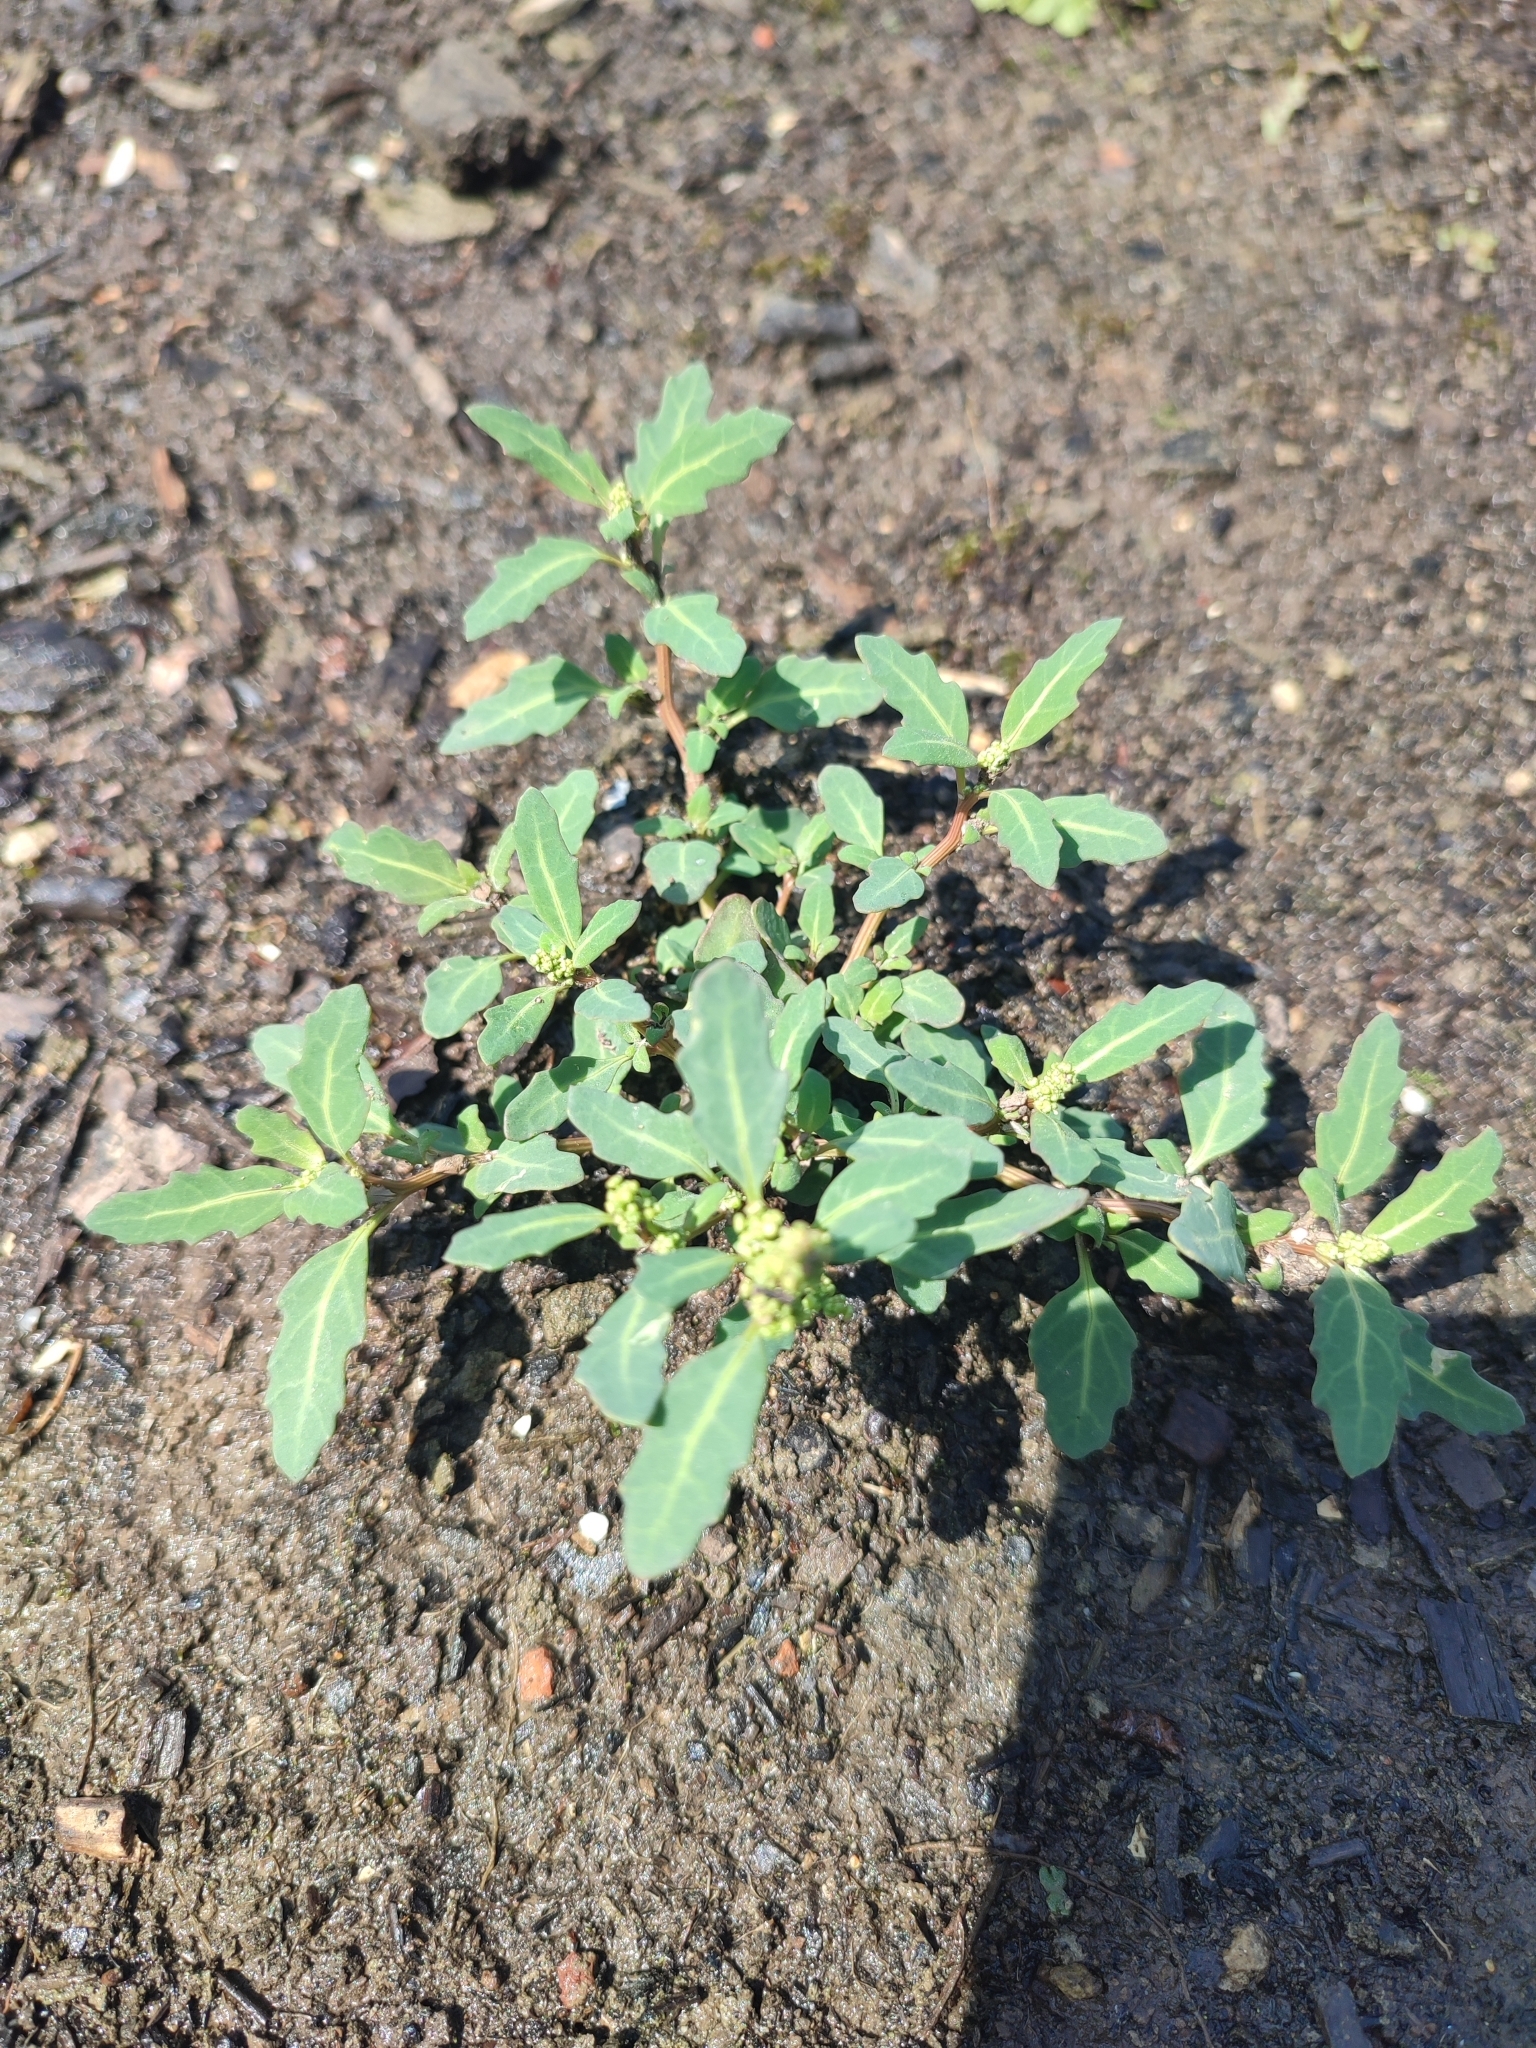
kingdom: Plantae
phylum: Tracheophyta
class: Magnoliopsida
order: Caryophyllales
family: Amaranthaceae
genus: Oxybasis
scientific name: Oxybasis glauca
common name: Glaucous goosefoot
